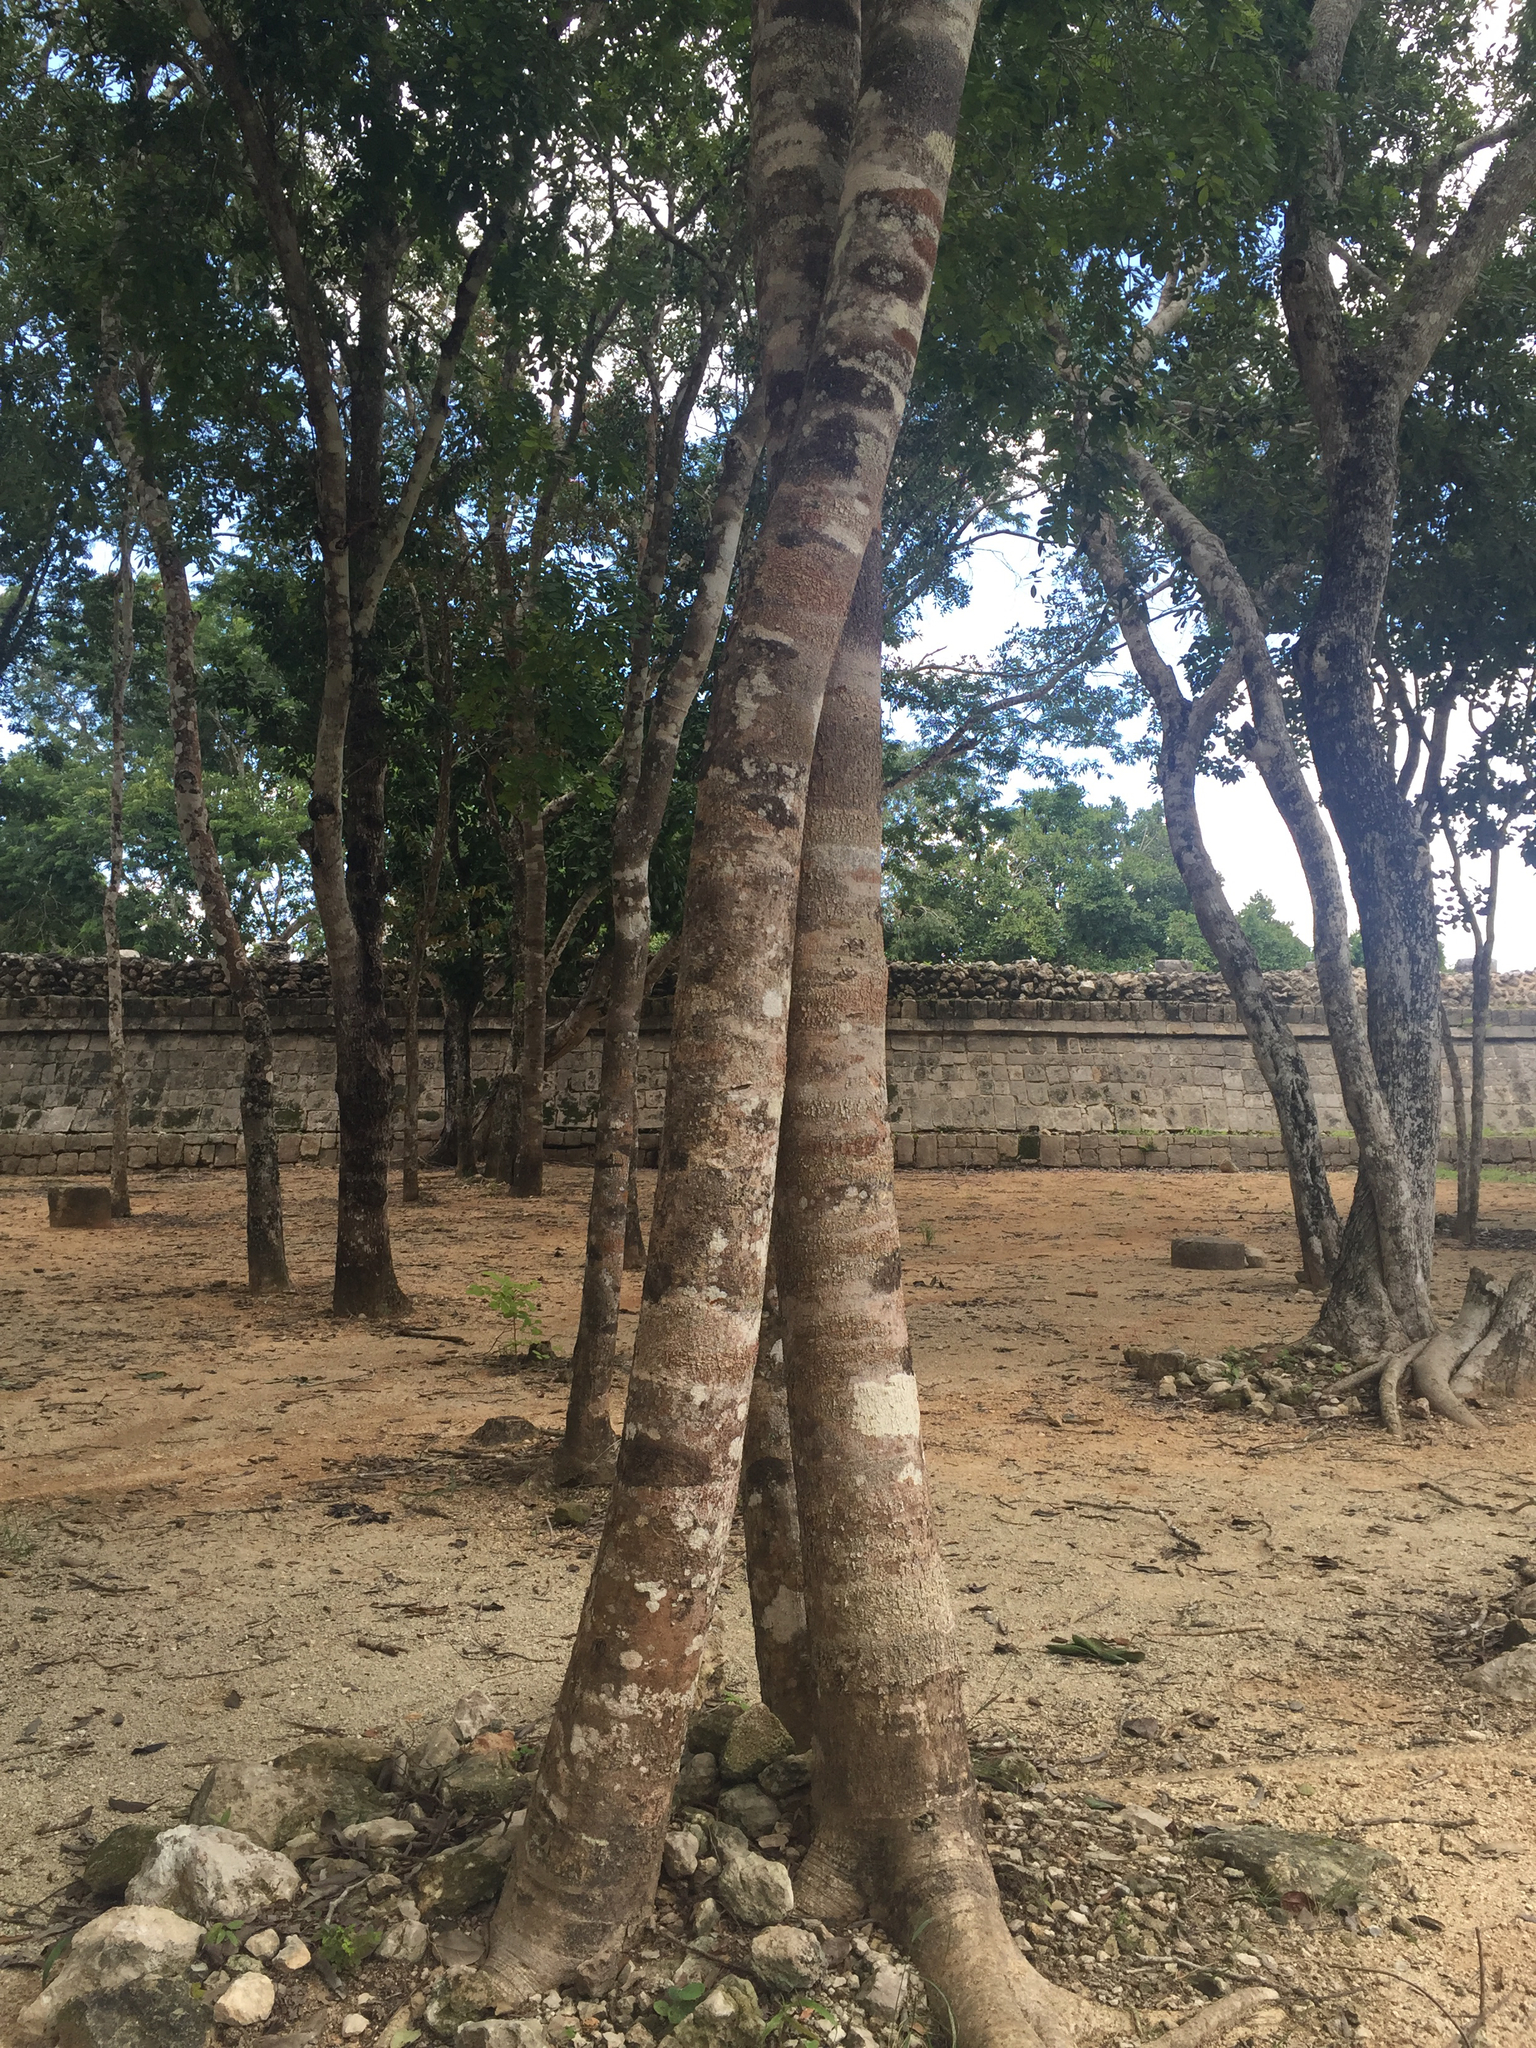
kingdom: Plantae
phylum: Tracheophyta
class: Magnoliopsida
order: Fabales
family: Fabaceae
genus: Piscidia
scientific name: Piscidia piscipula
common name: Florida fishpoison tree
